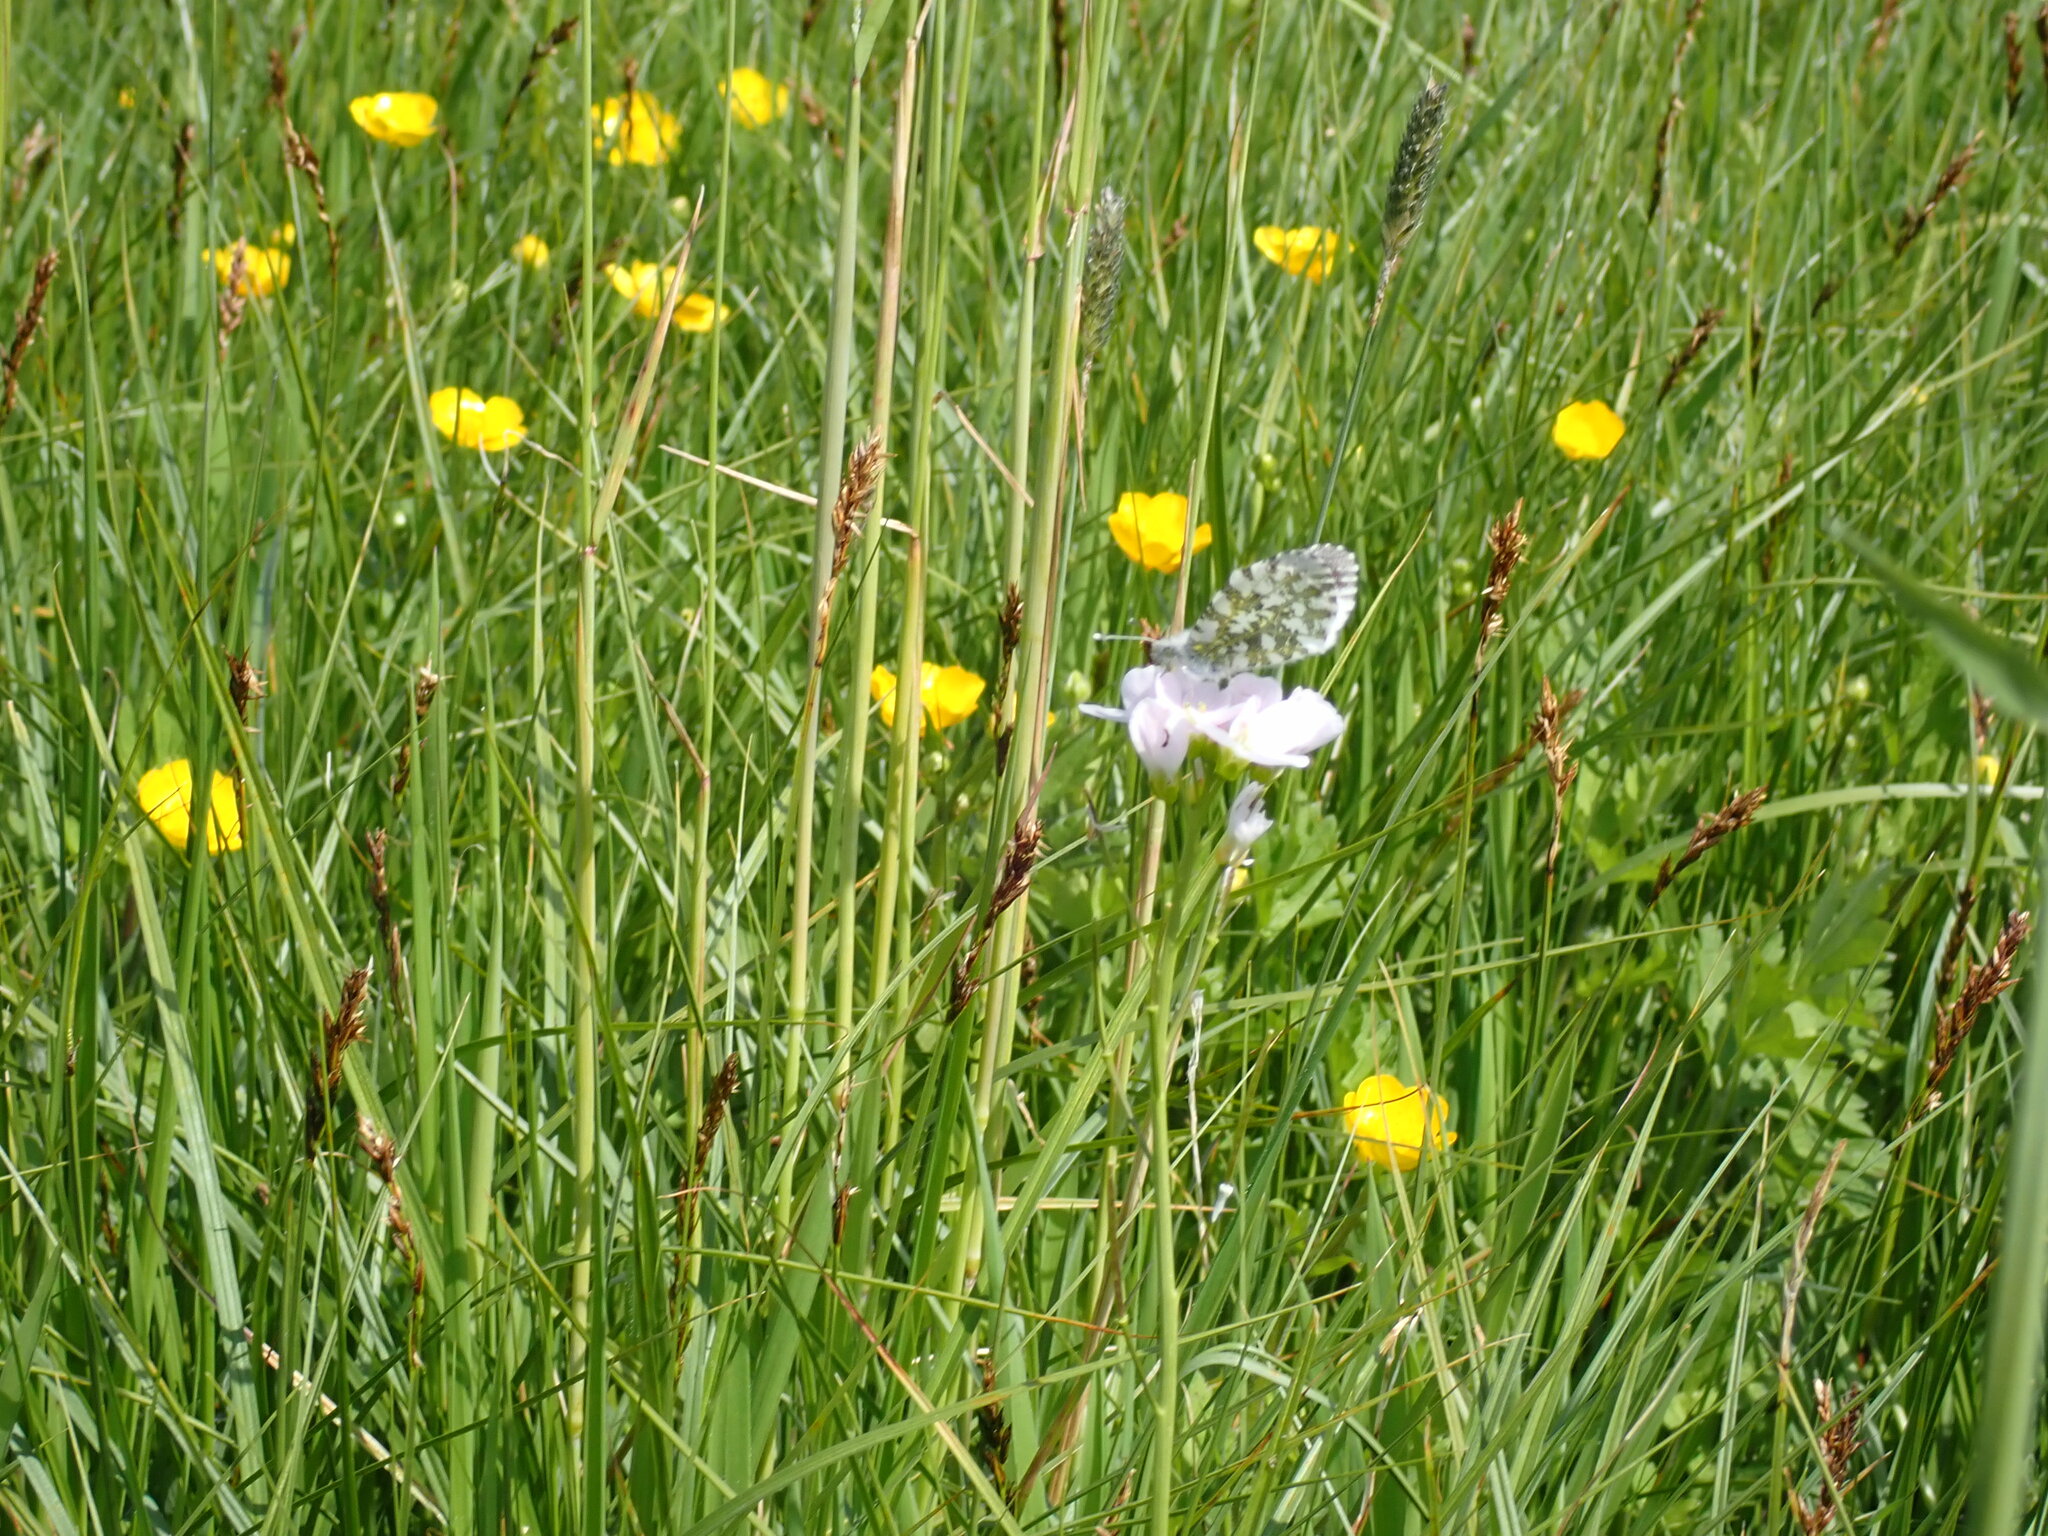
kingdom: Animalia
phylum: Arthropoda
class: Insecta
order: Lepidoptera
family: Pieridae
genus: Anthocharis
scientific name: Anthocharis cardamines
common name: Orange-tip
